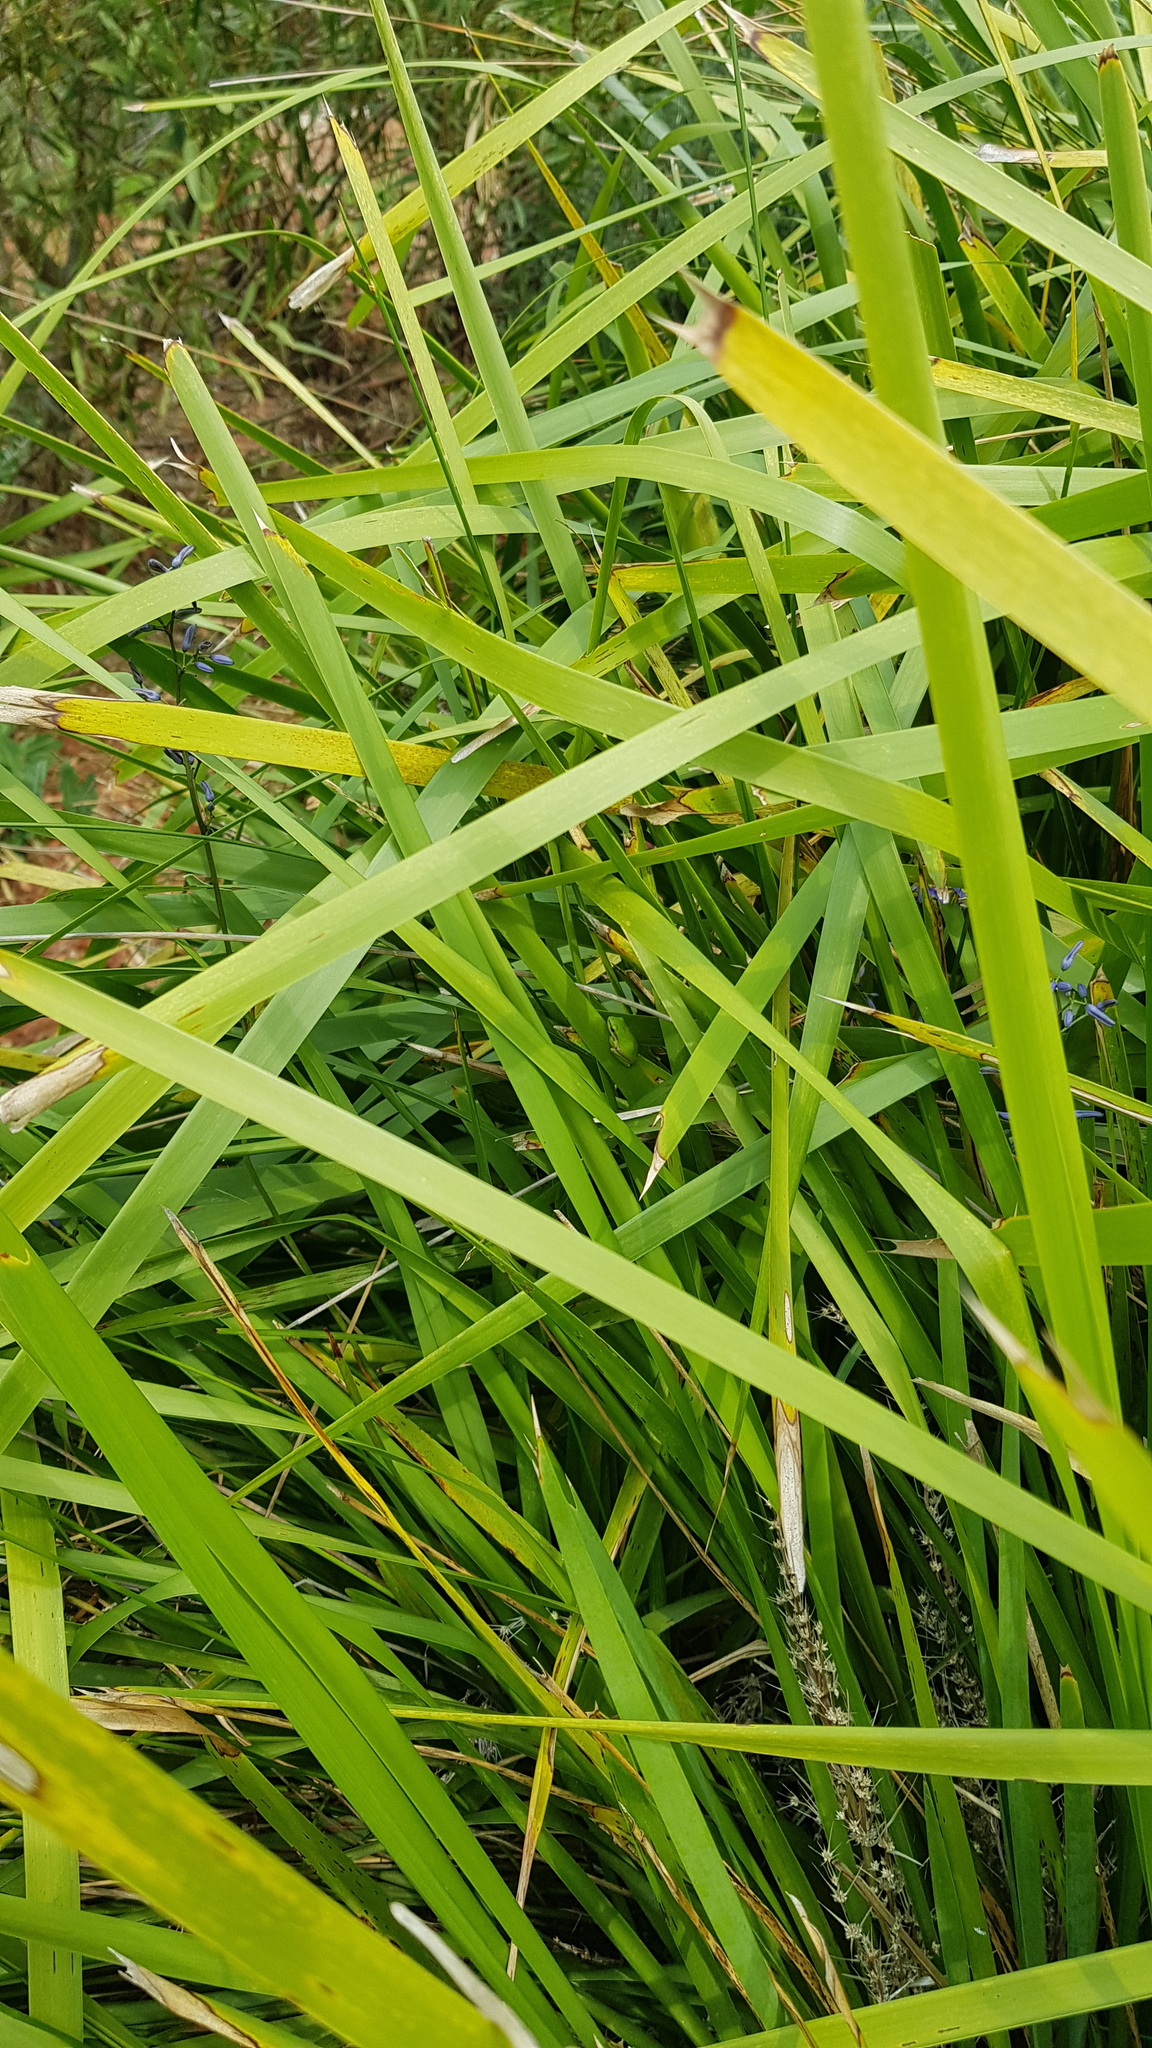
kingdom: Animalia
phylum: Chordata
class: Amphibia
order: Anura
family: Pelodryadidae
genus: Litoria
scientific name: Litoria fallax
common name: Eastern dwarf treefrog
